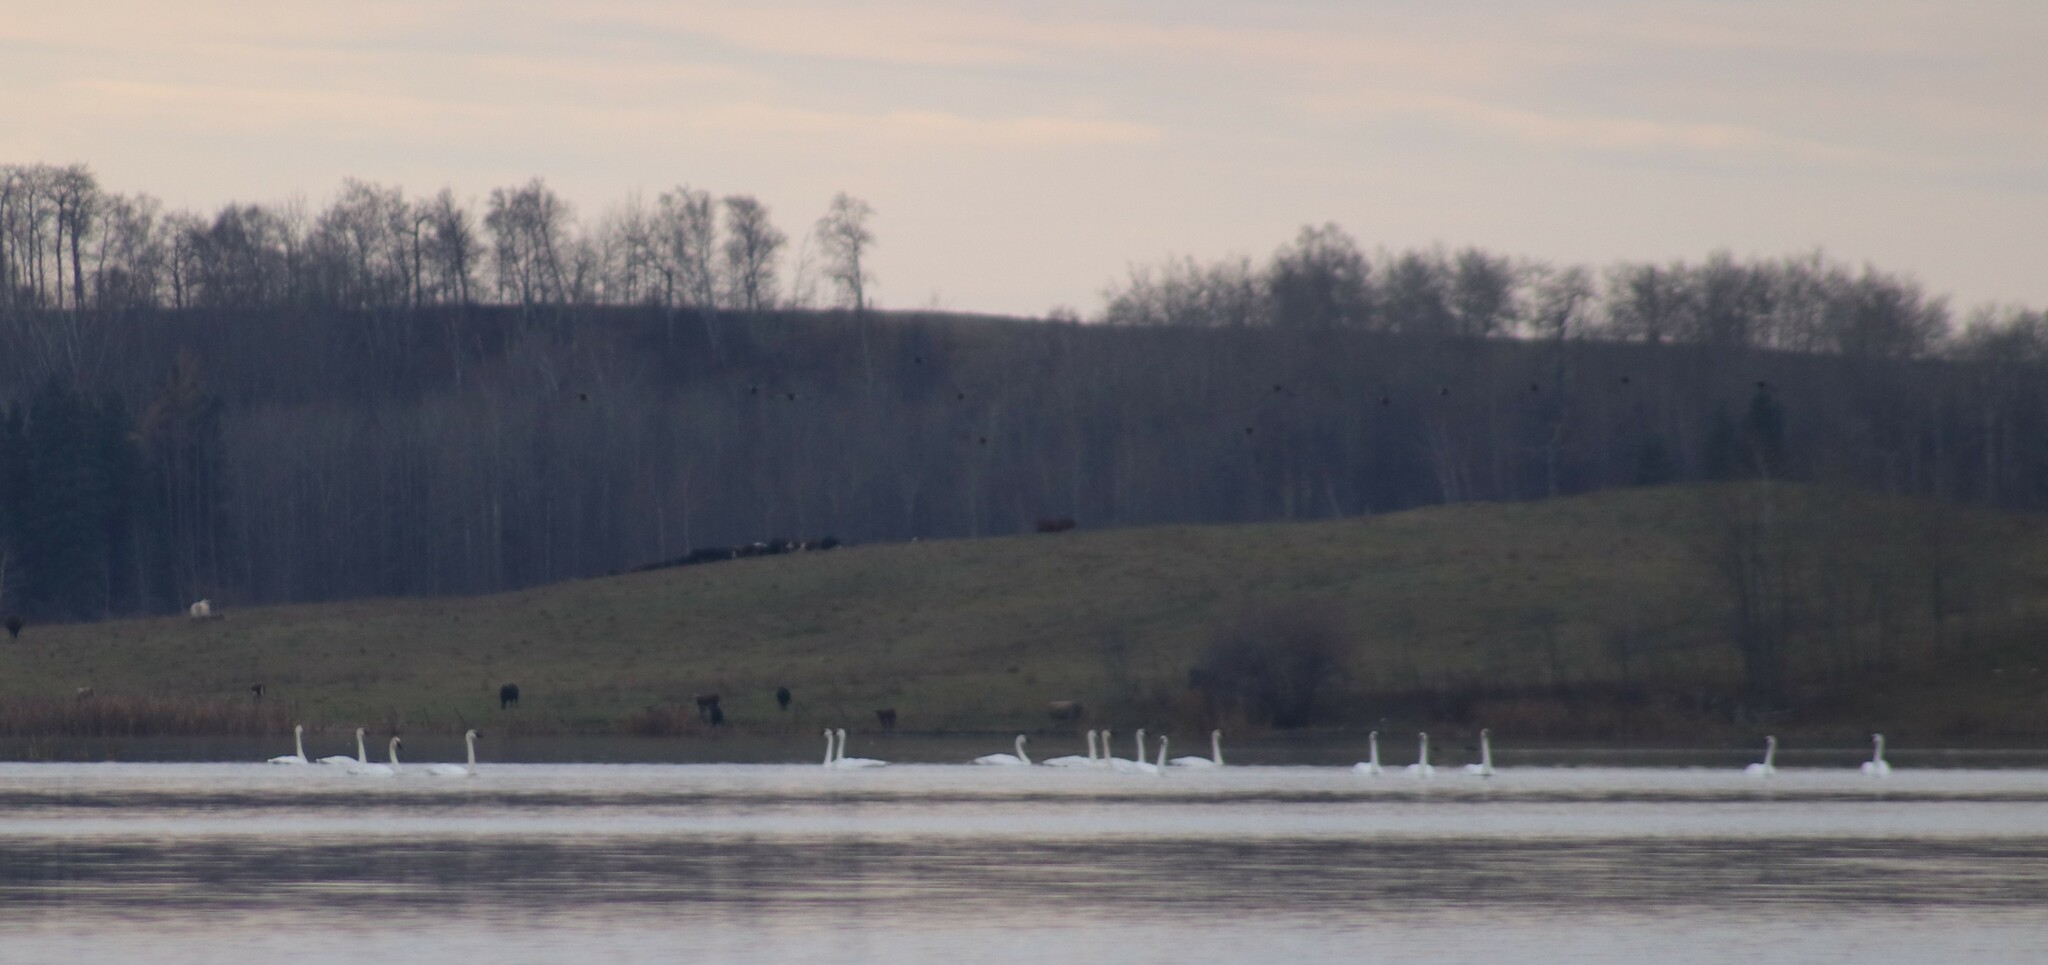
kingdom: Animalia
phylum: Chordata
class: Aves
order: Anseriformes
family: Anatidae
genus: Cygnus
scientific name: Cygnus buccinator
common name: Trumpeter swan
